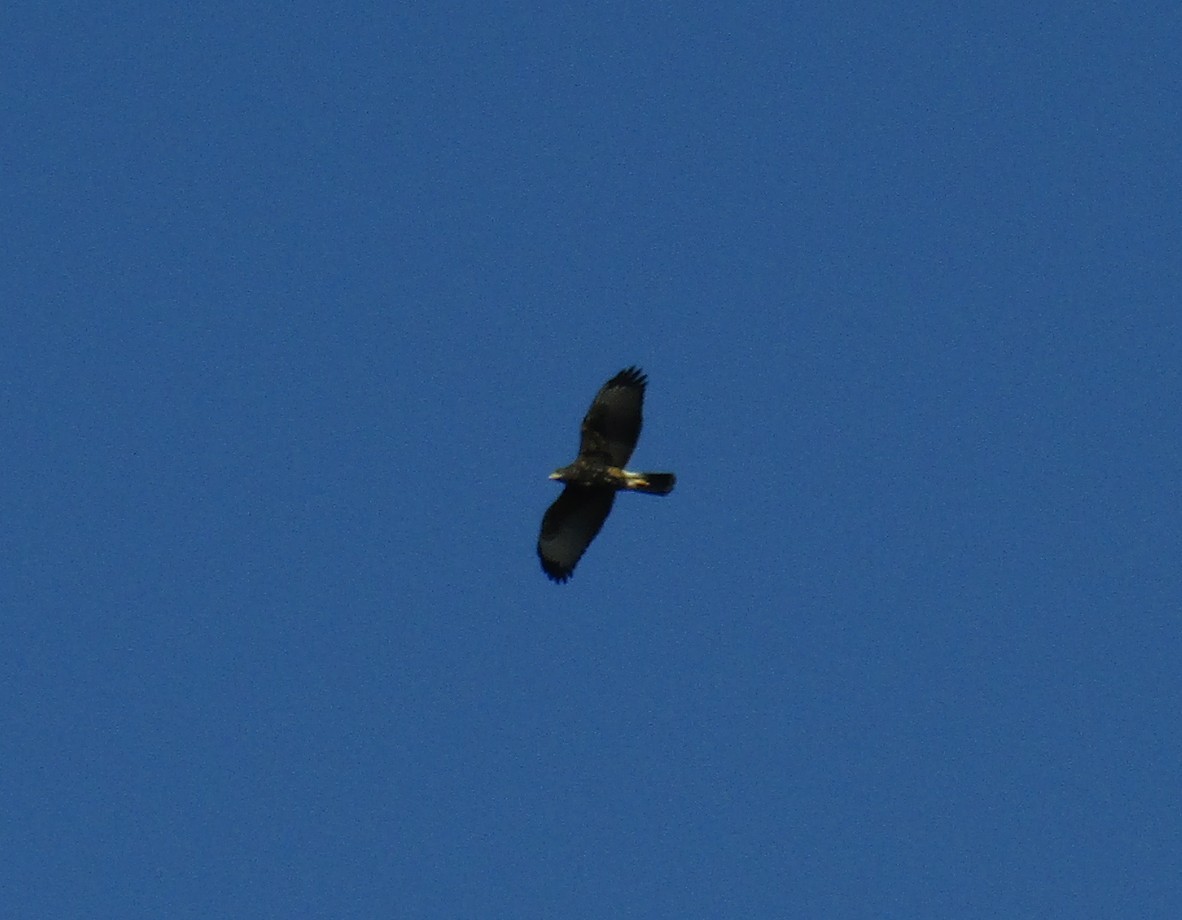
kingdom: Animalia
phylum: Chordata
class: Aves
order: Accipitriformes
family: Accipitridae
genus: Parabuteo
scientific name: Parabuteo unicinctus
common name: Harris's hawk
